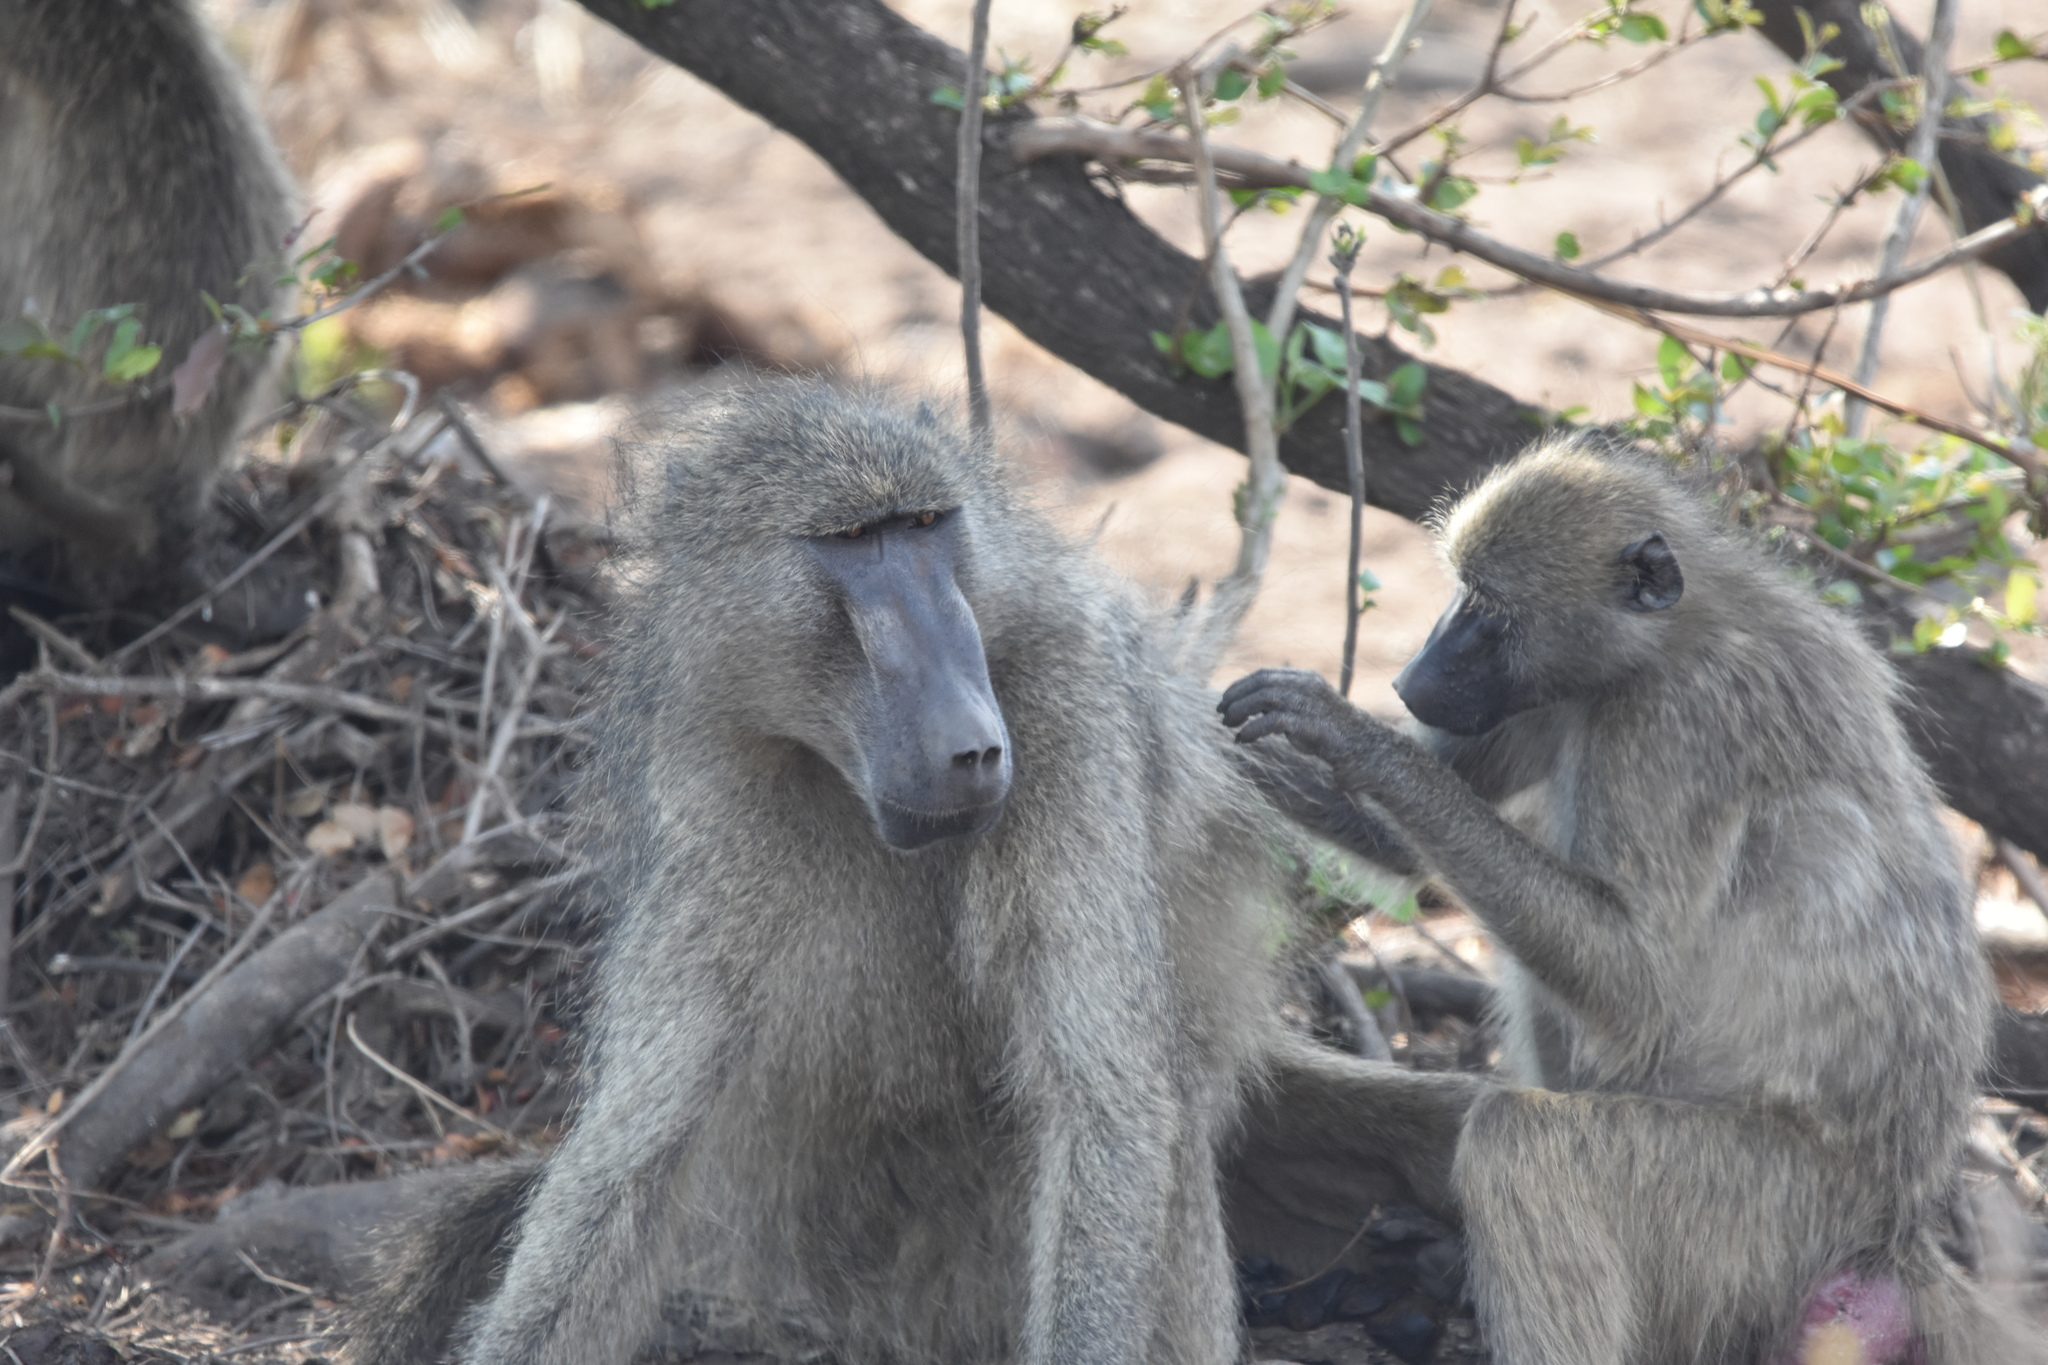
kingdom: Animalia
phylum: Chordata
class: Mammalia
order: Primates
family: Cercopithecidae
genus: Papio
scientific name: Papio ursinus
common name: Chacma baboon
